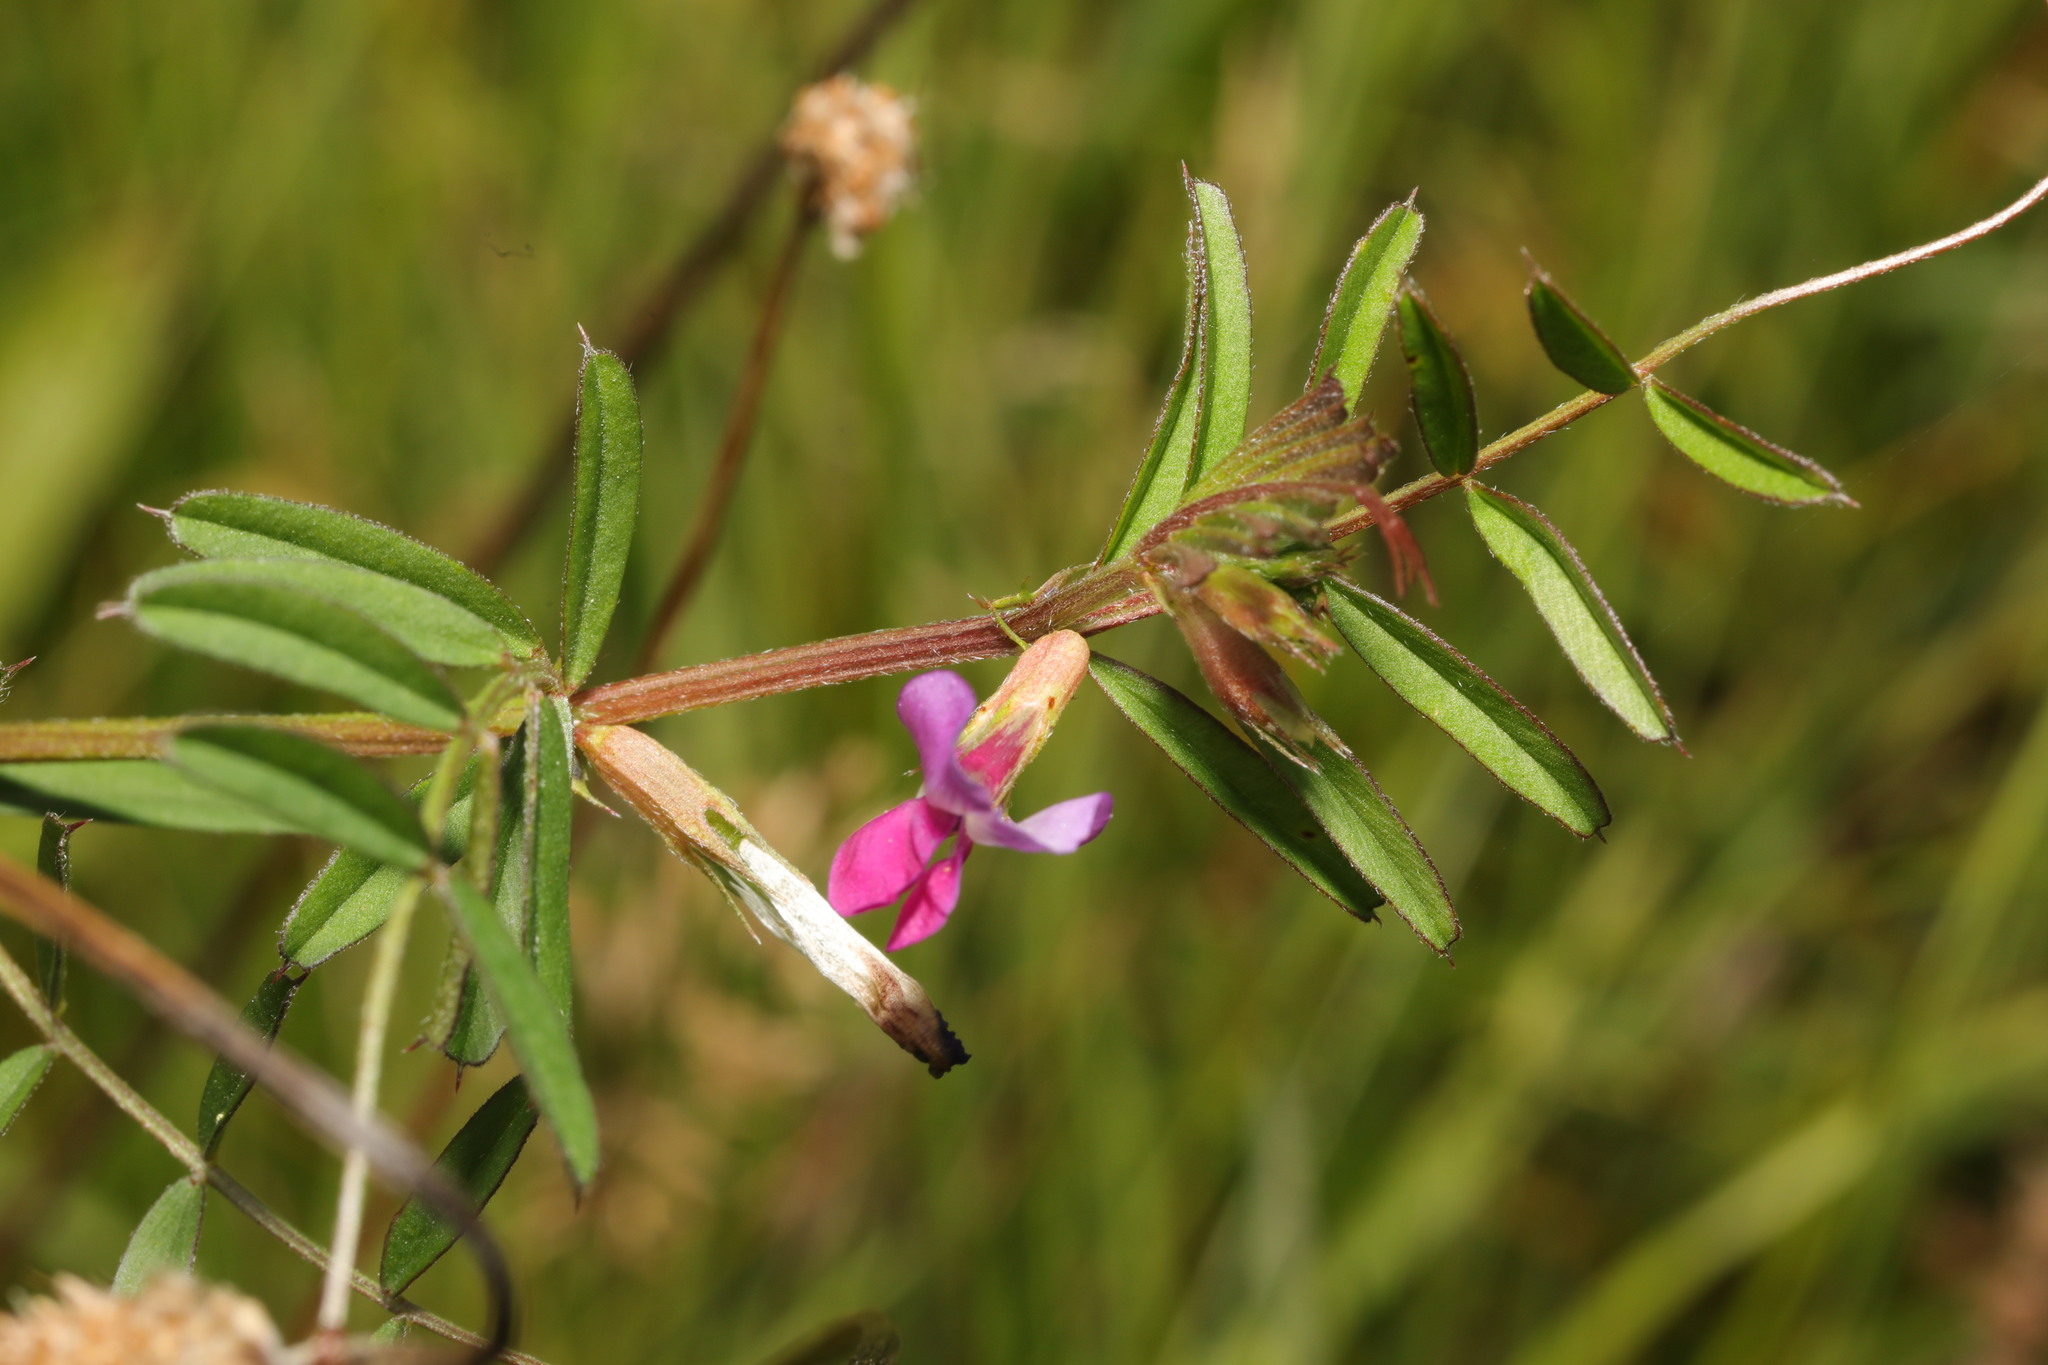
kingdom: Plantae
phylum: Tracheophyta
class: Magnoliopsida
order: Fabales
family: Fabaceae
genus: Vicia
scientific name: Vicia sativa
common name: Garden vetch
